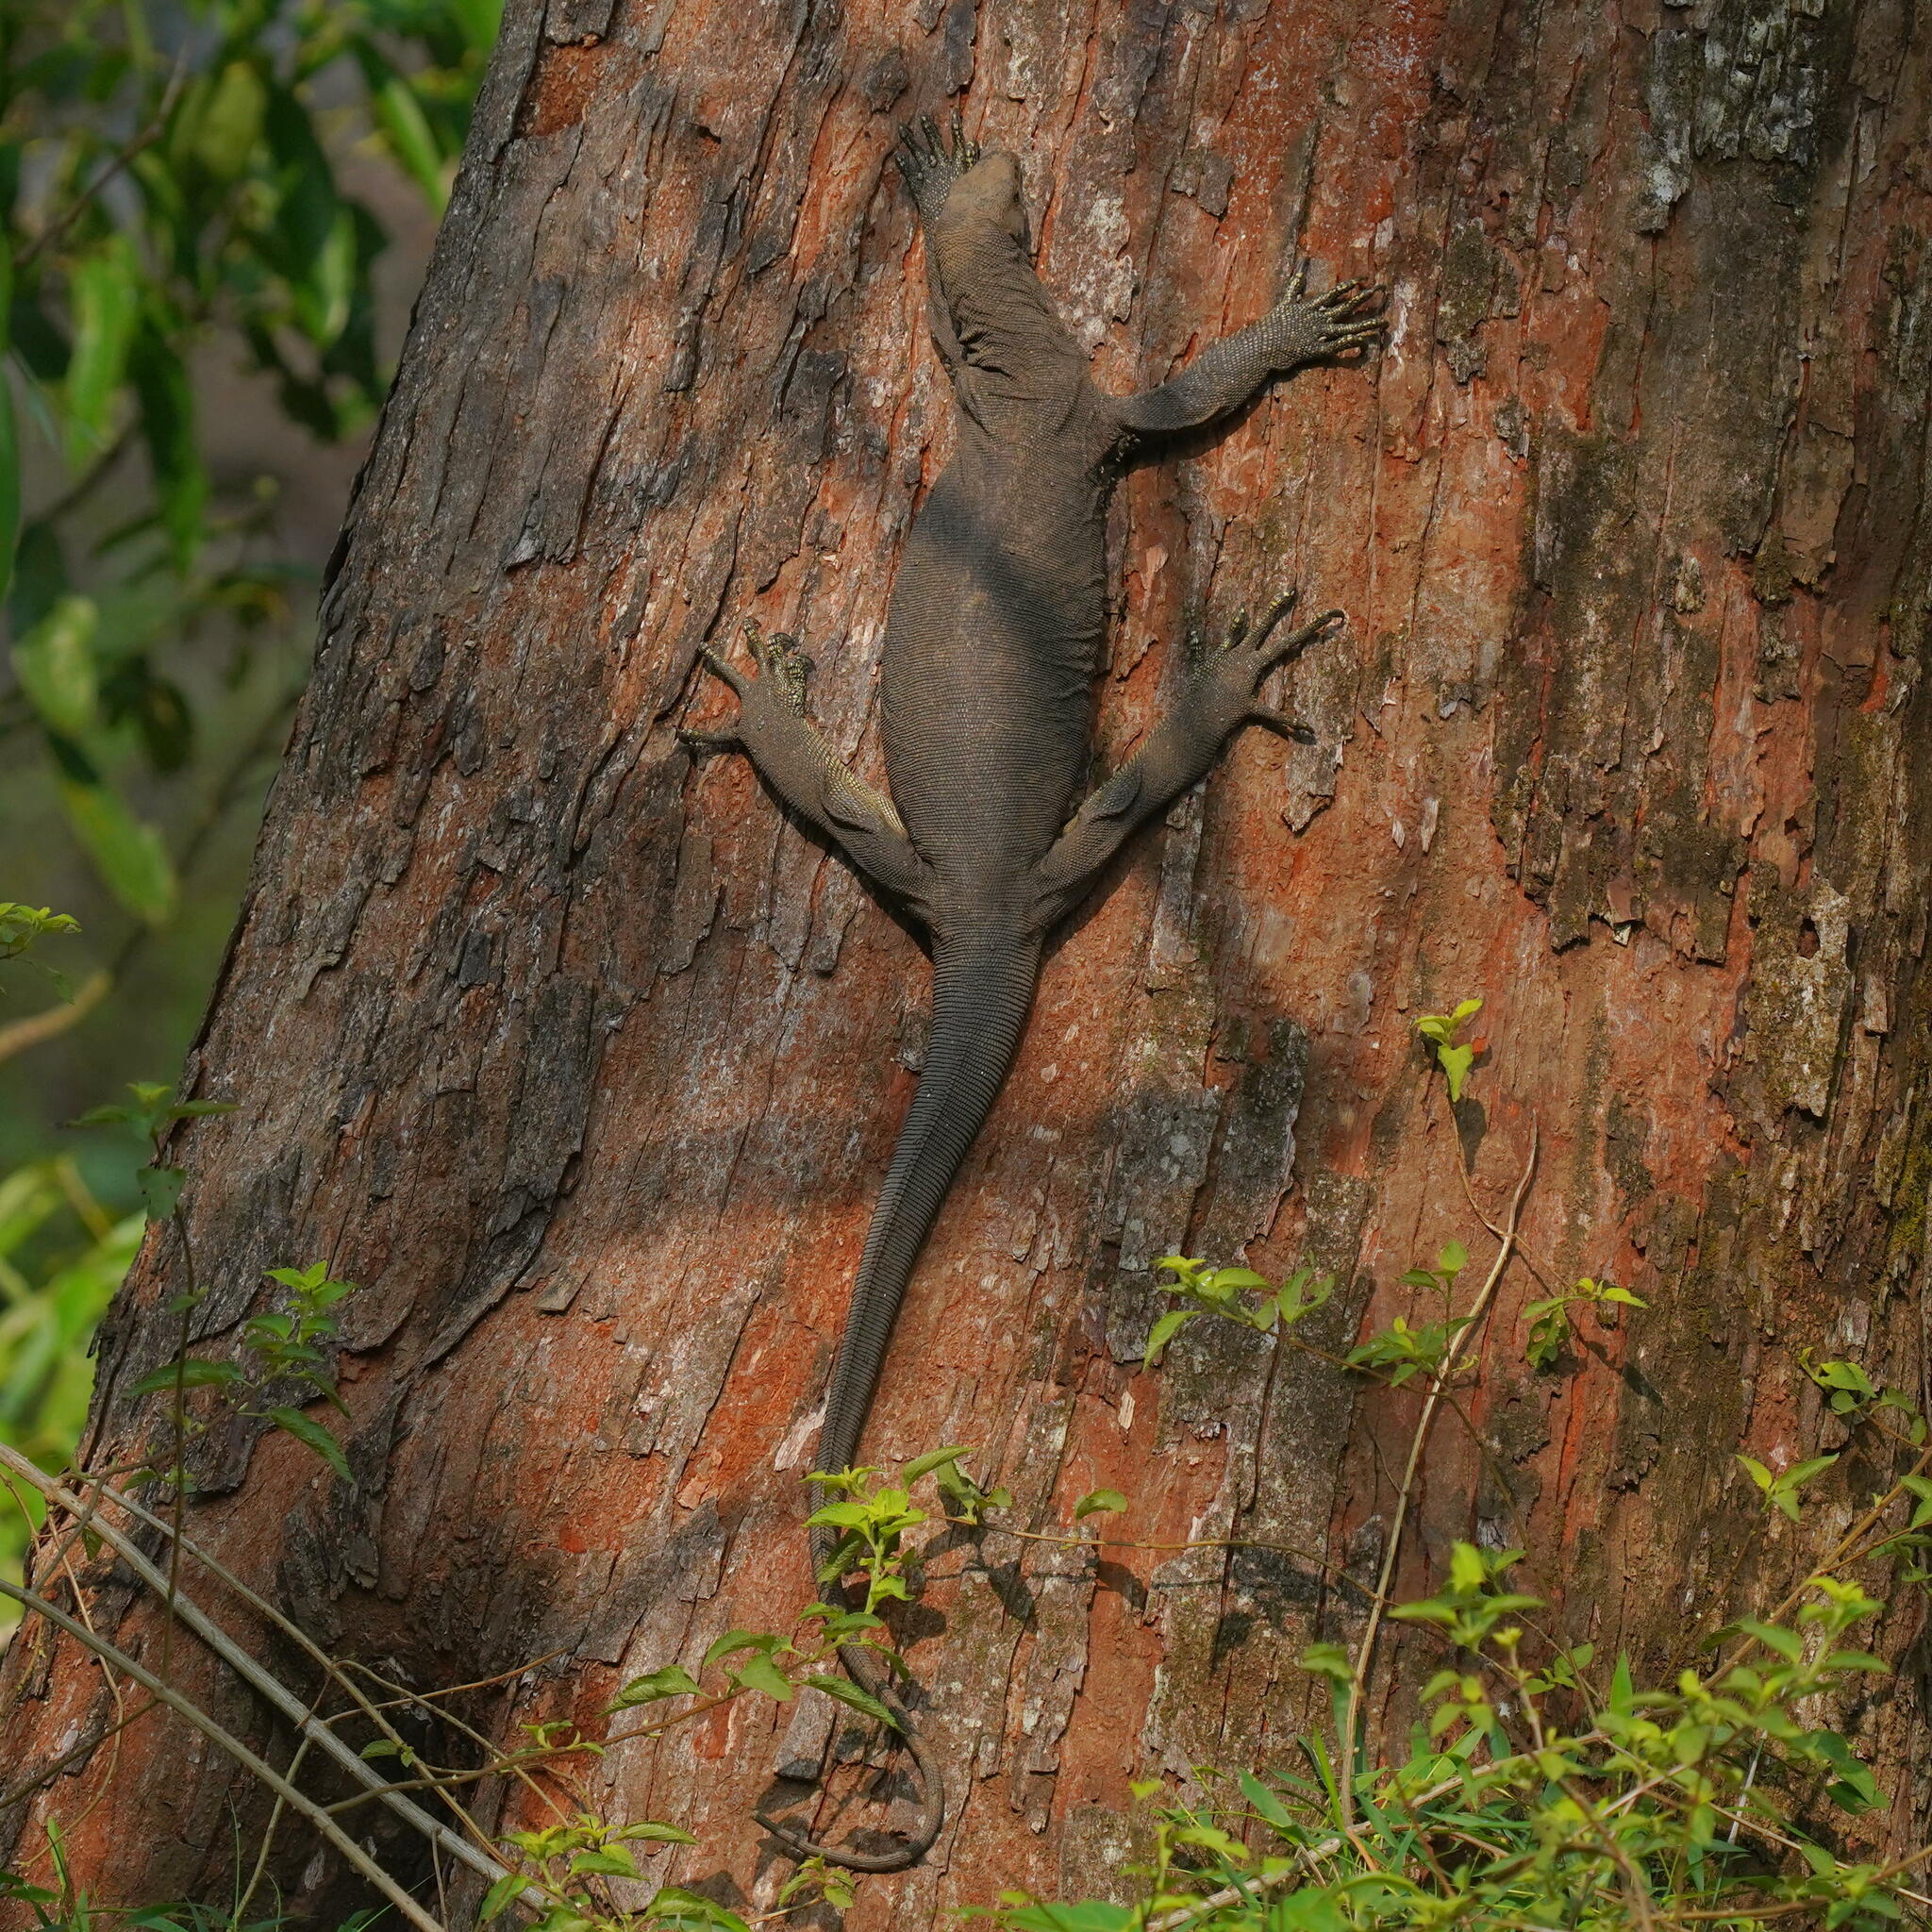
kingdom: Animalia
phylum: Chordata
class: Squamata
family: Varanidae
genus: Varanus
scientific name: Varanus bengalensis
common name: Bengal monitor
